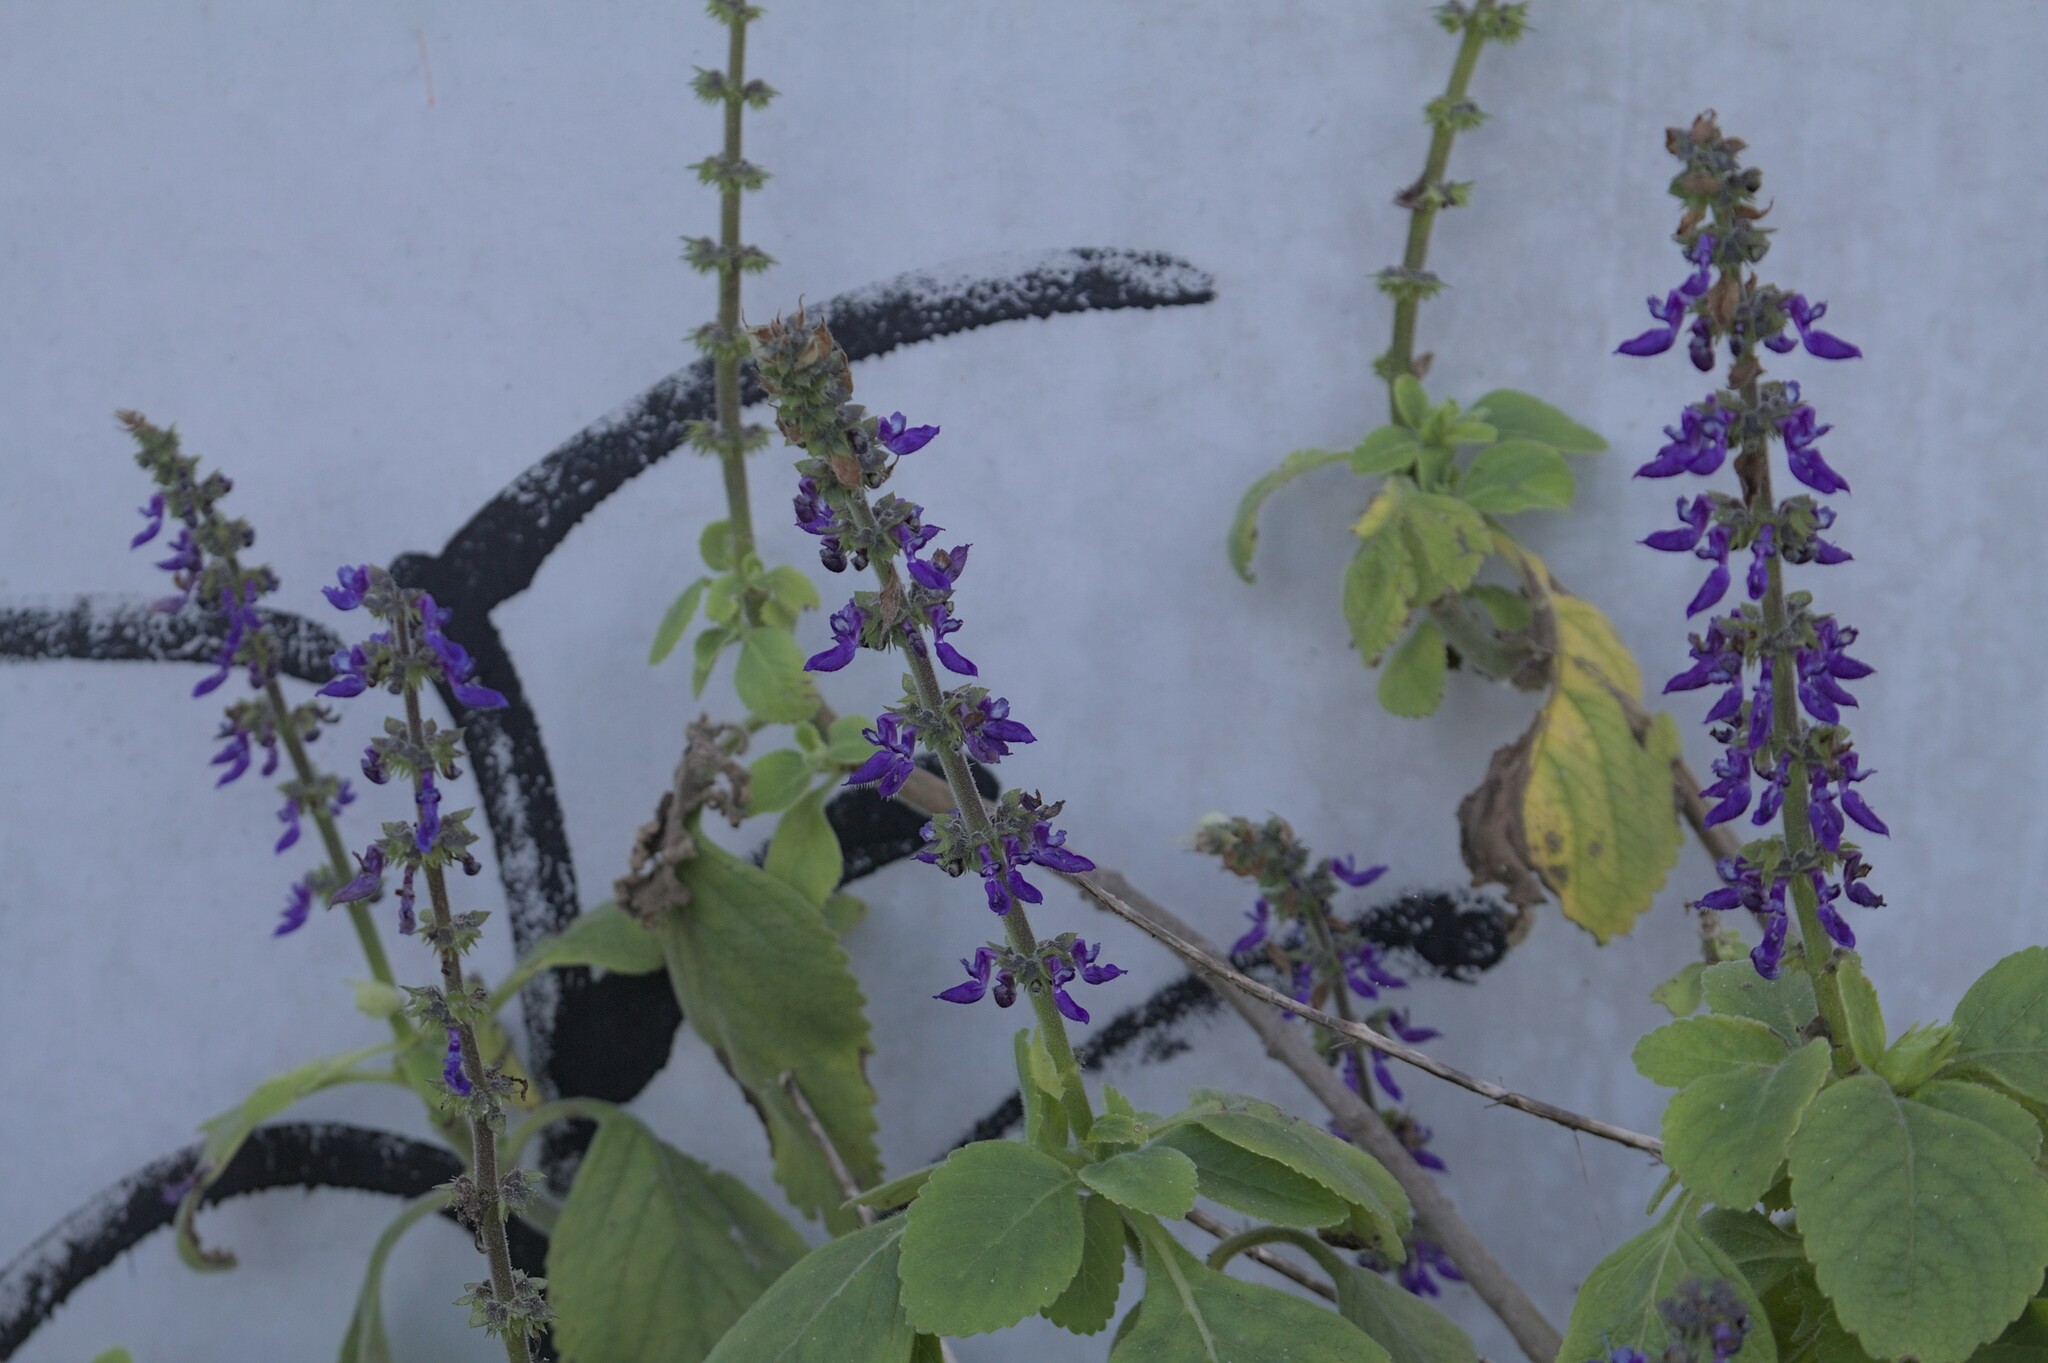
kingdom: Plantae
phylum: Tracheophyta
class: Magnoliopsida
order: Lamiales
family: Lamiaceae
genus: Coleus
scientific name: Coleus barbatus
